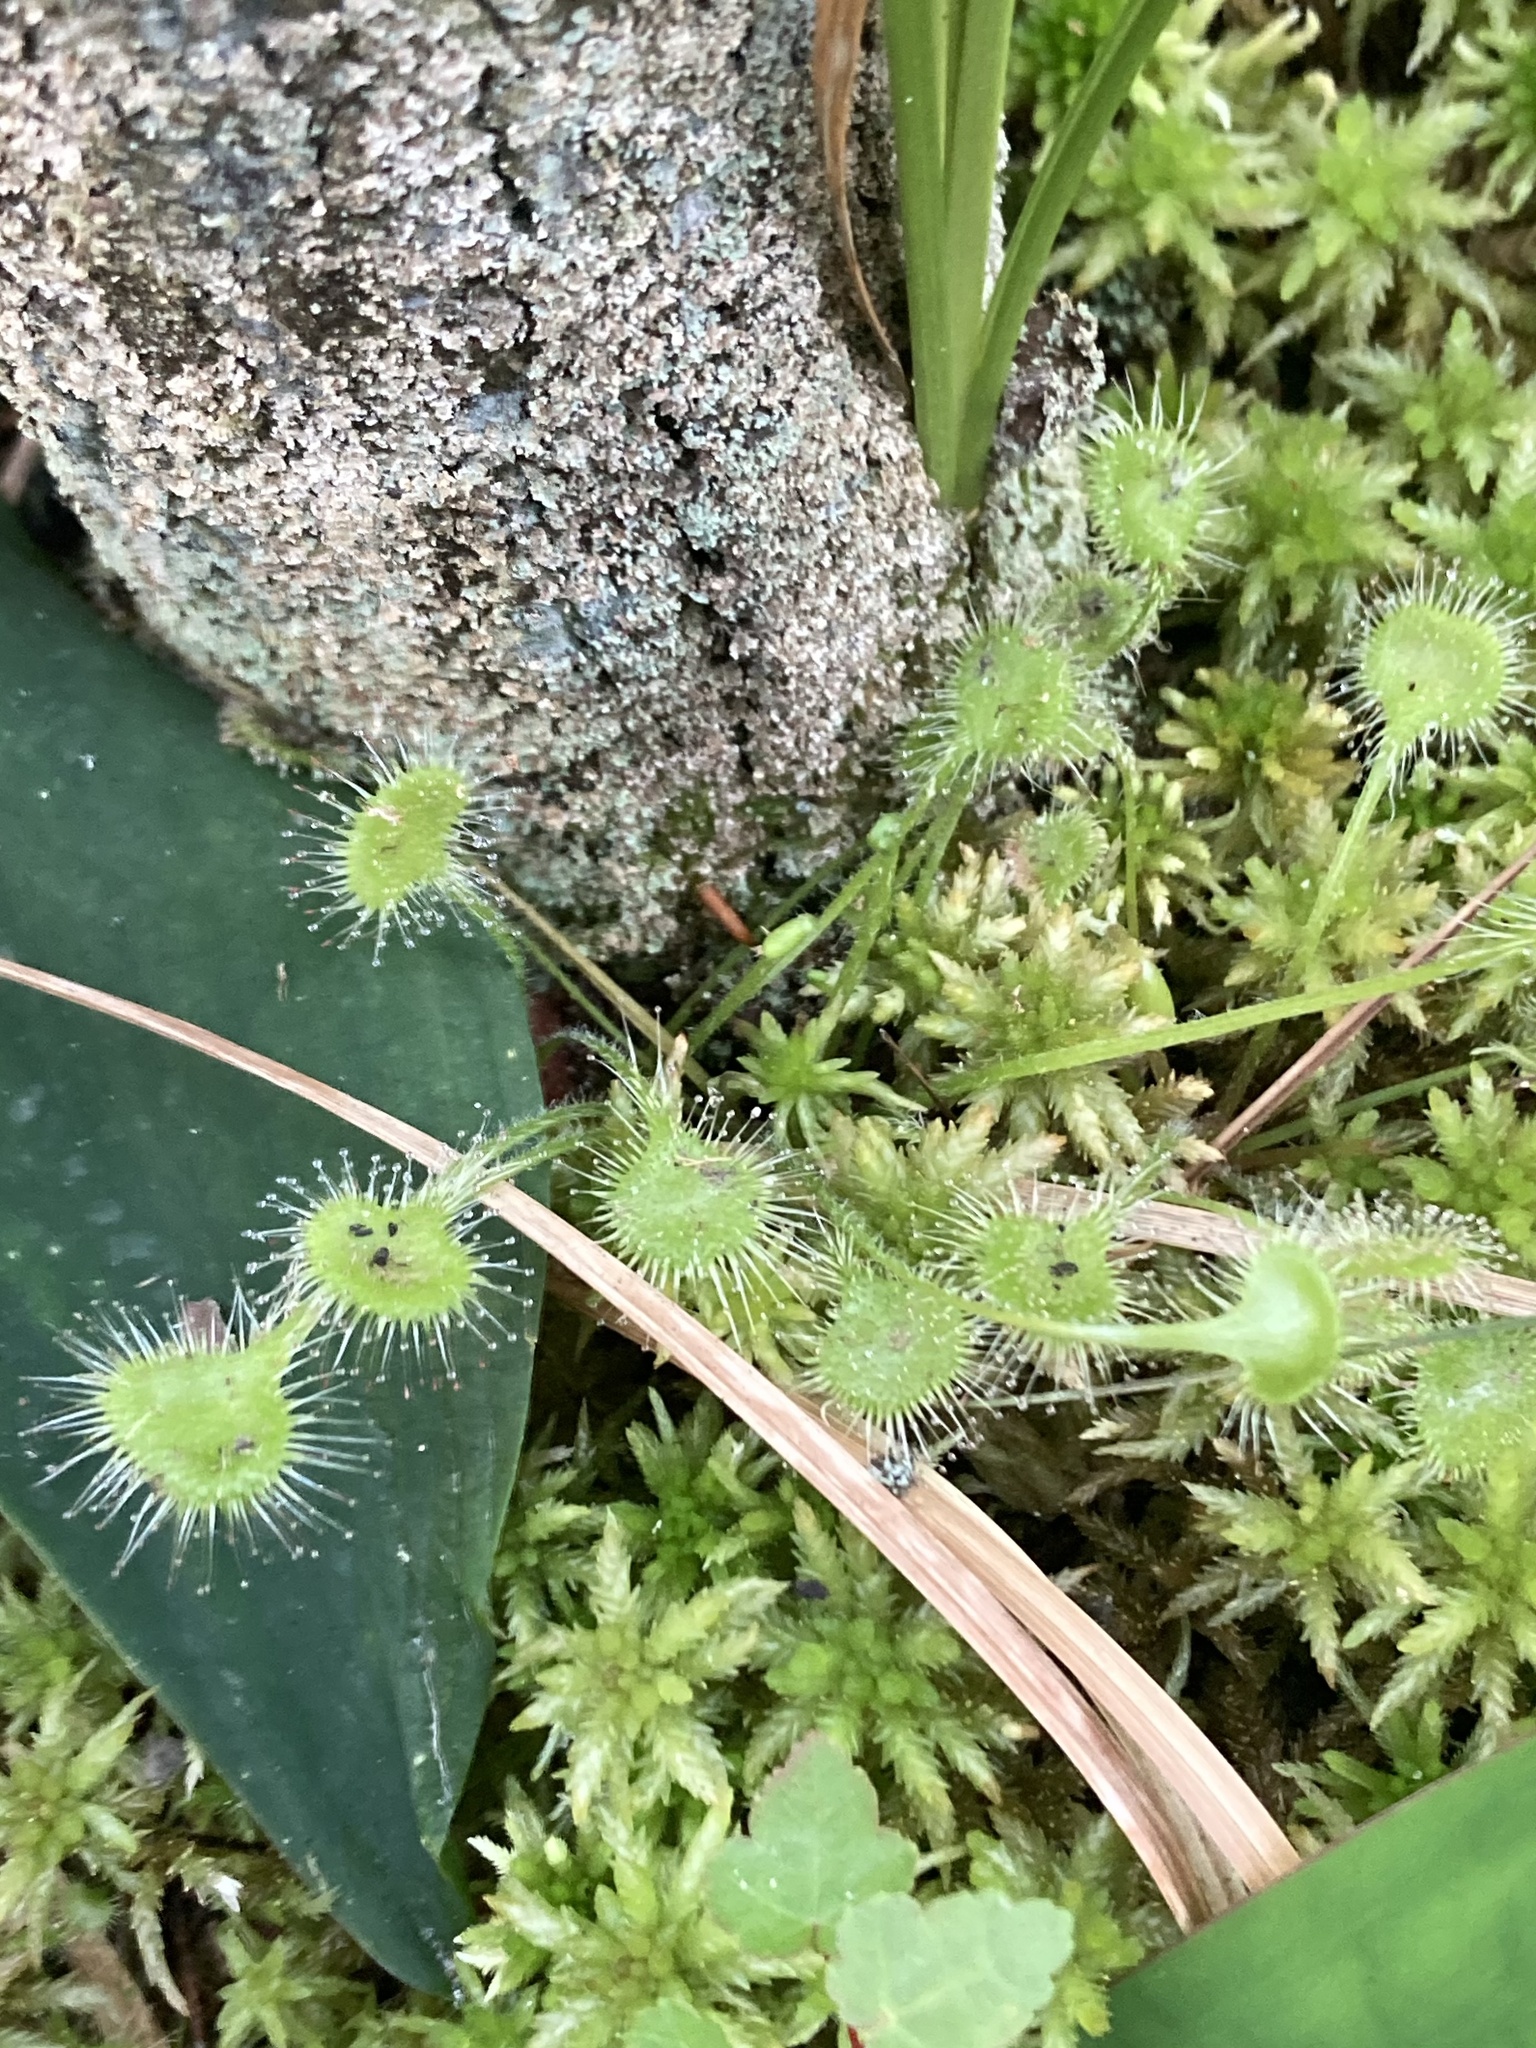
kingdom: Plantae
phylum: Tracheophyta
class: Magnoliopsida
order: Caryophyllales
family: Droseraceae
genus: Drosera
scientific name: Drosera rotundifolia
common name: Round-leaved sundew
